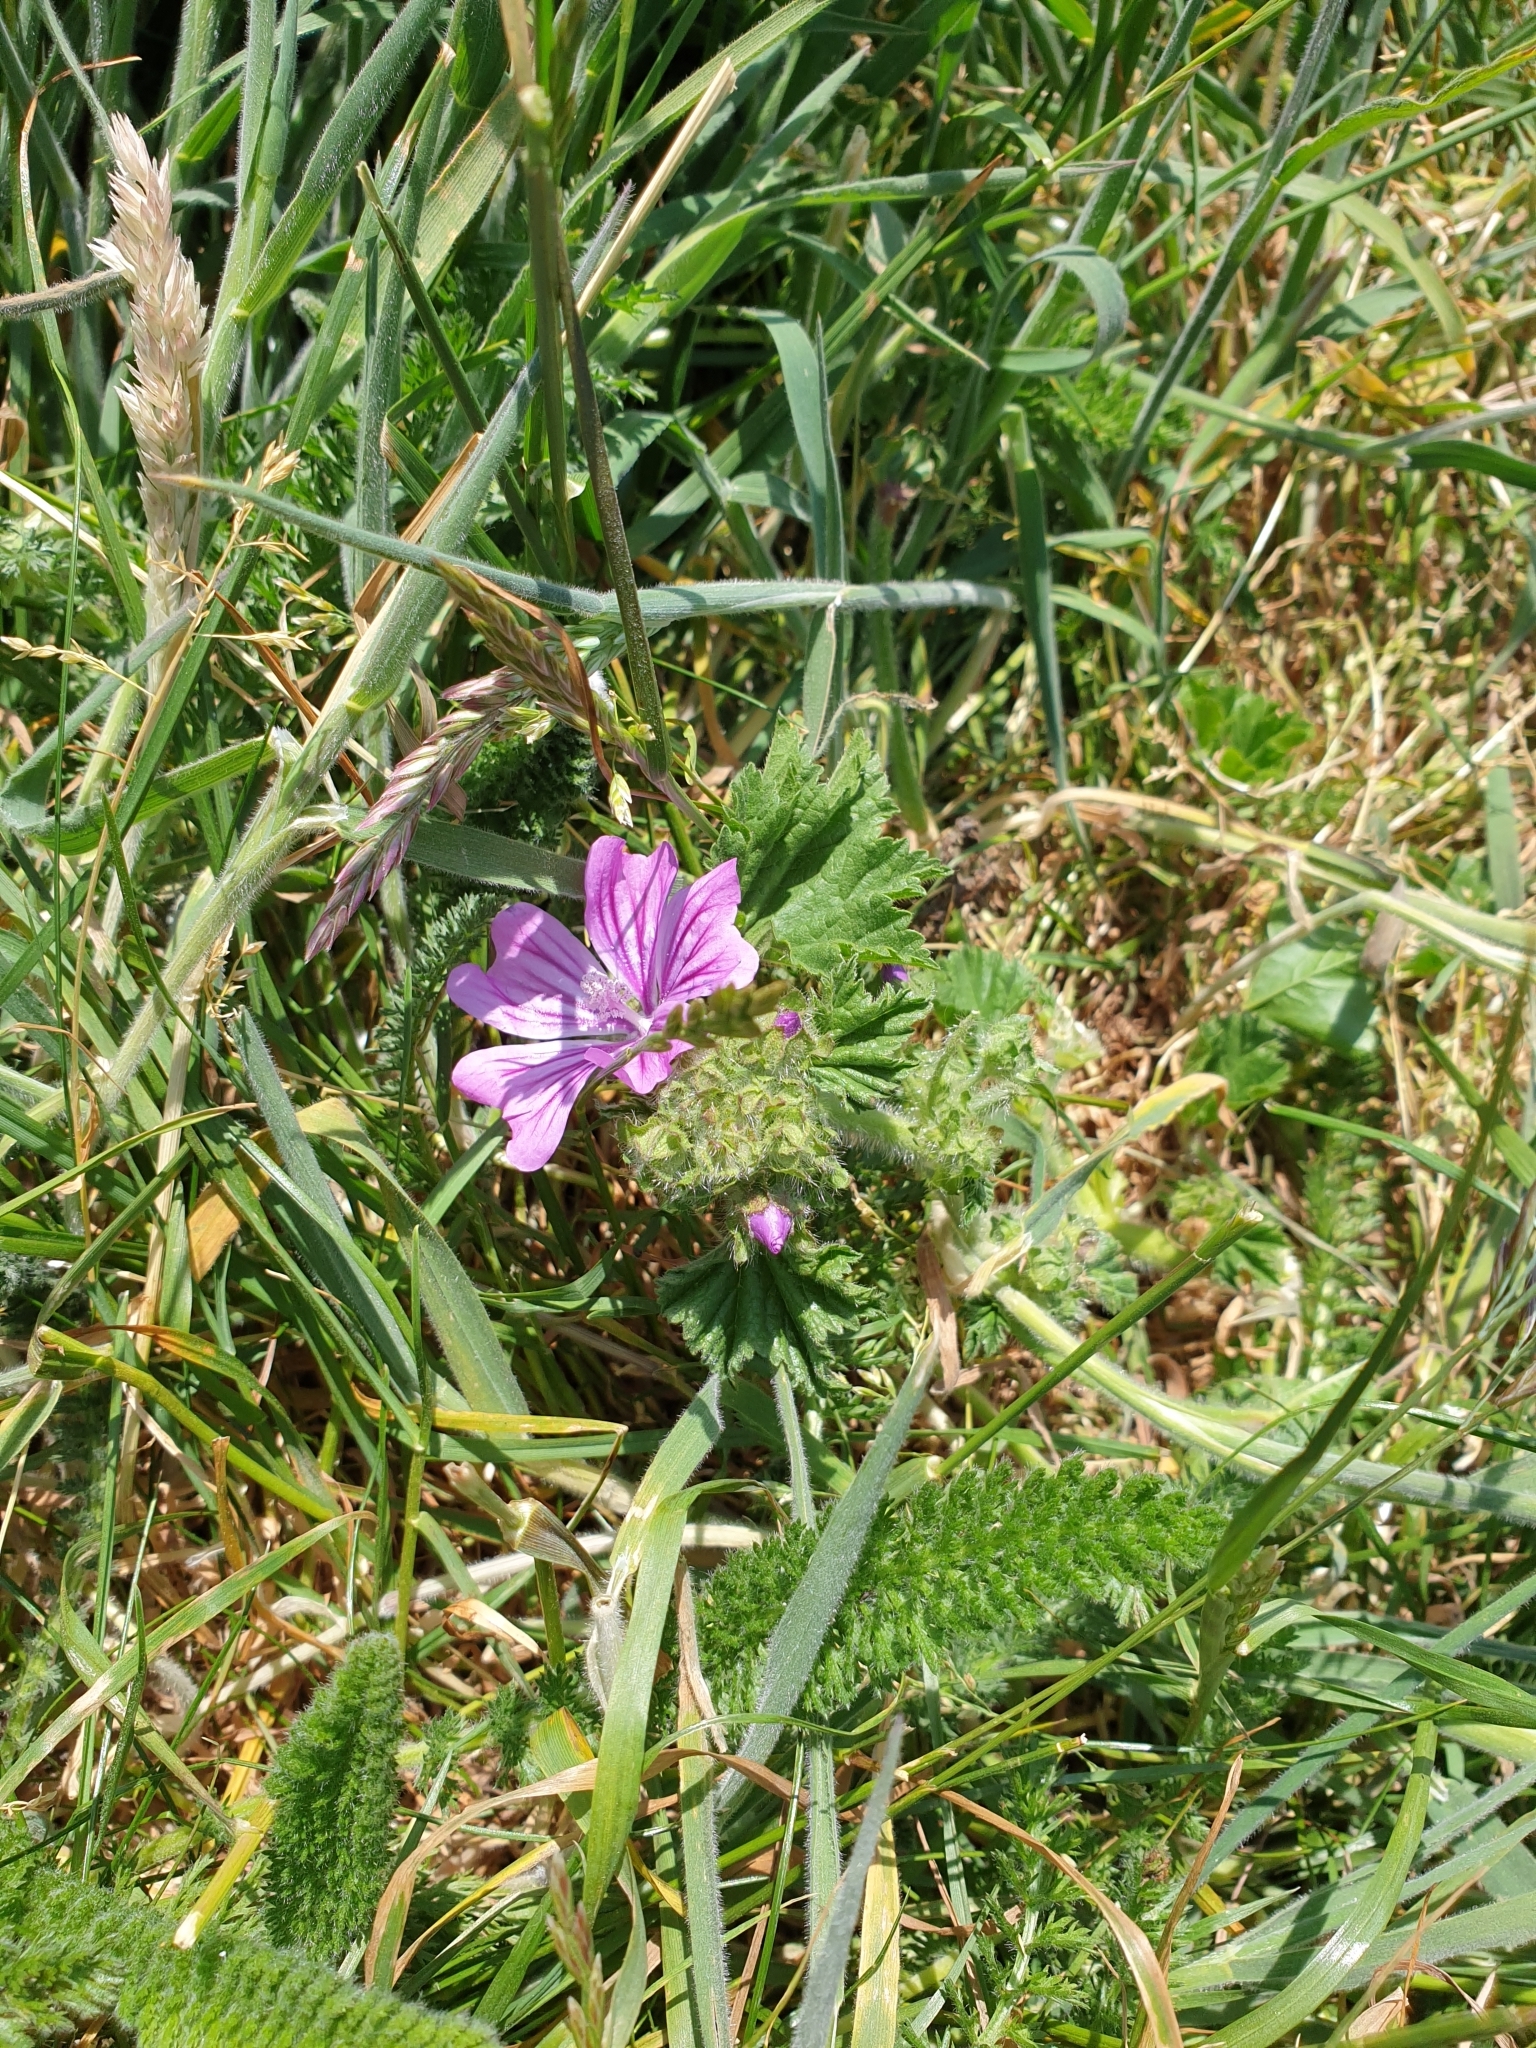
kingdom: Plantae
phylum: Tracheophyta
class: Magnoliopsida
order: Malvales
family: Malvaceae
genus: Malva
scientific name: Malva sylvestris
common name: Common mallow
